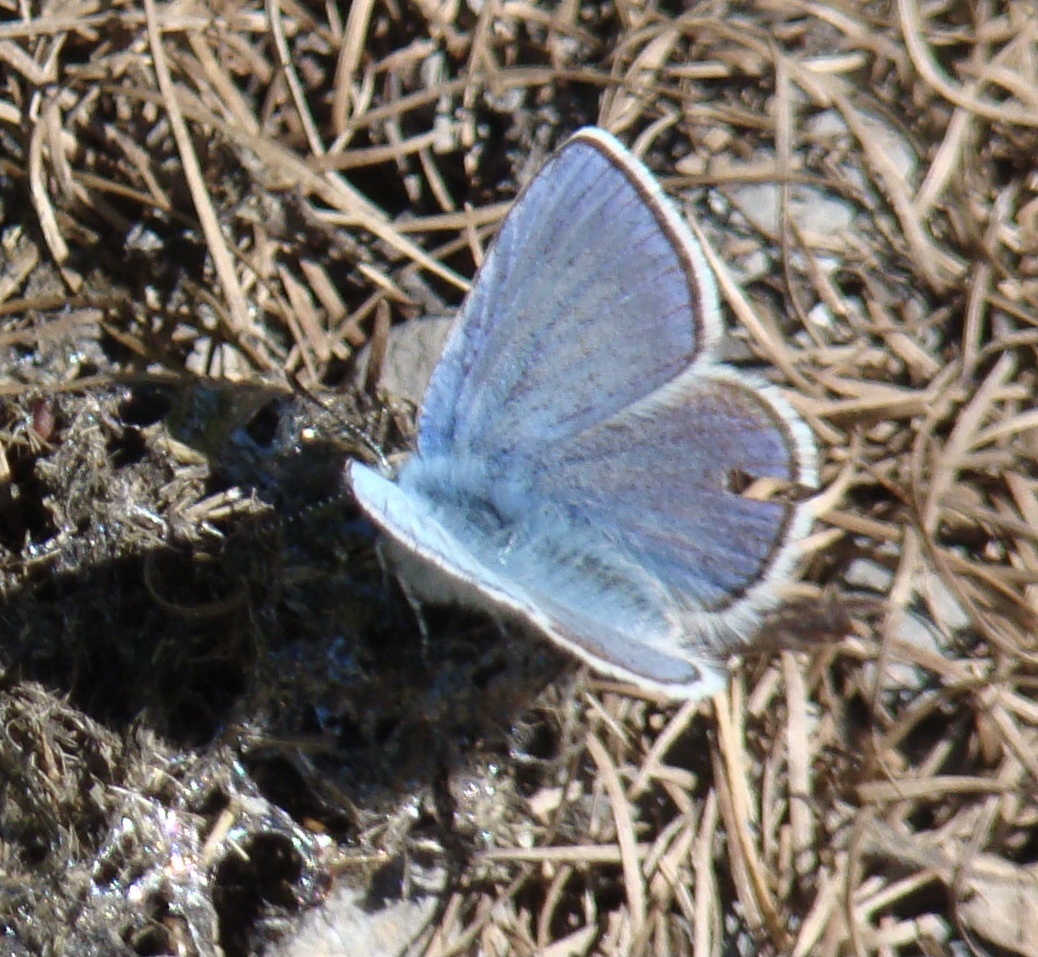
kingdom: Animalia
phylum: Arthropoda
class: Insecta
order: Lepidoptera
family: Lycaenidae
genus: Albulina
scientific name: Albulina orbitulus
